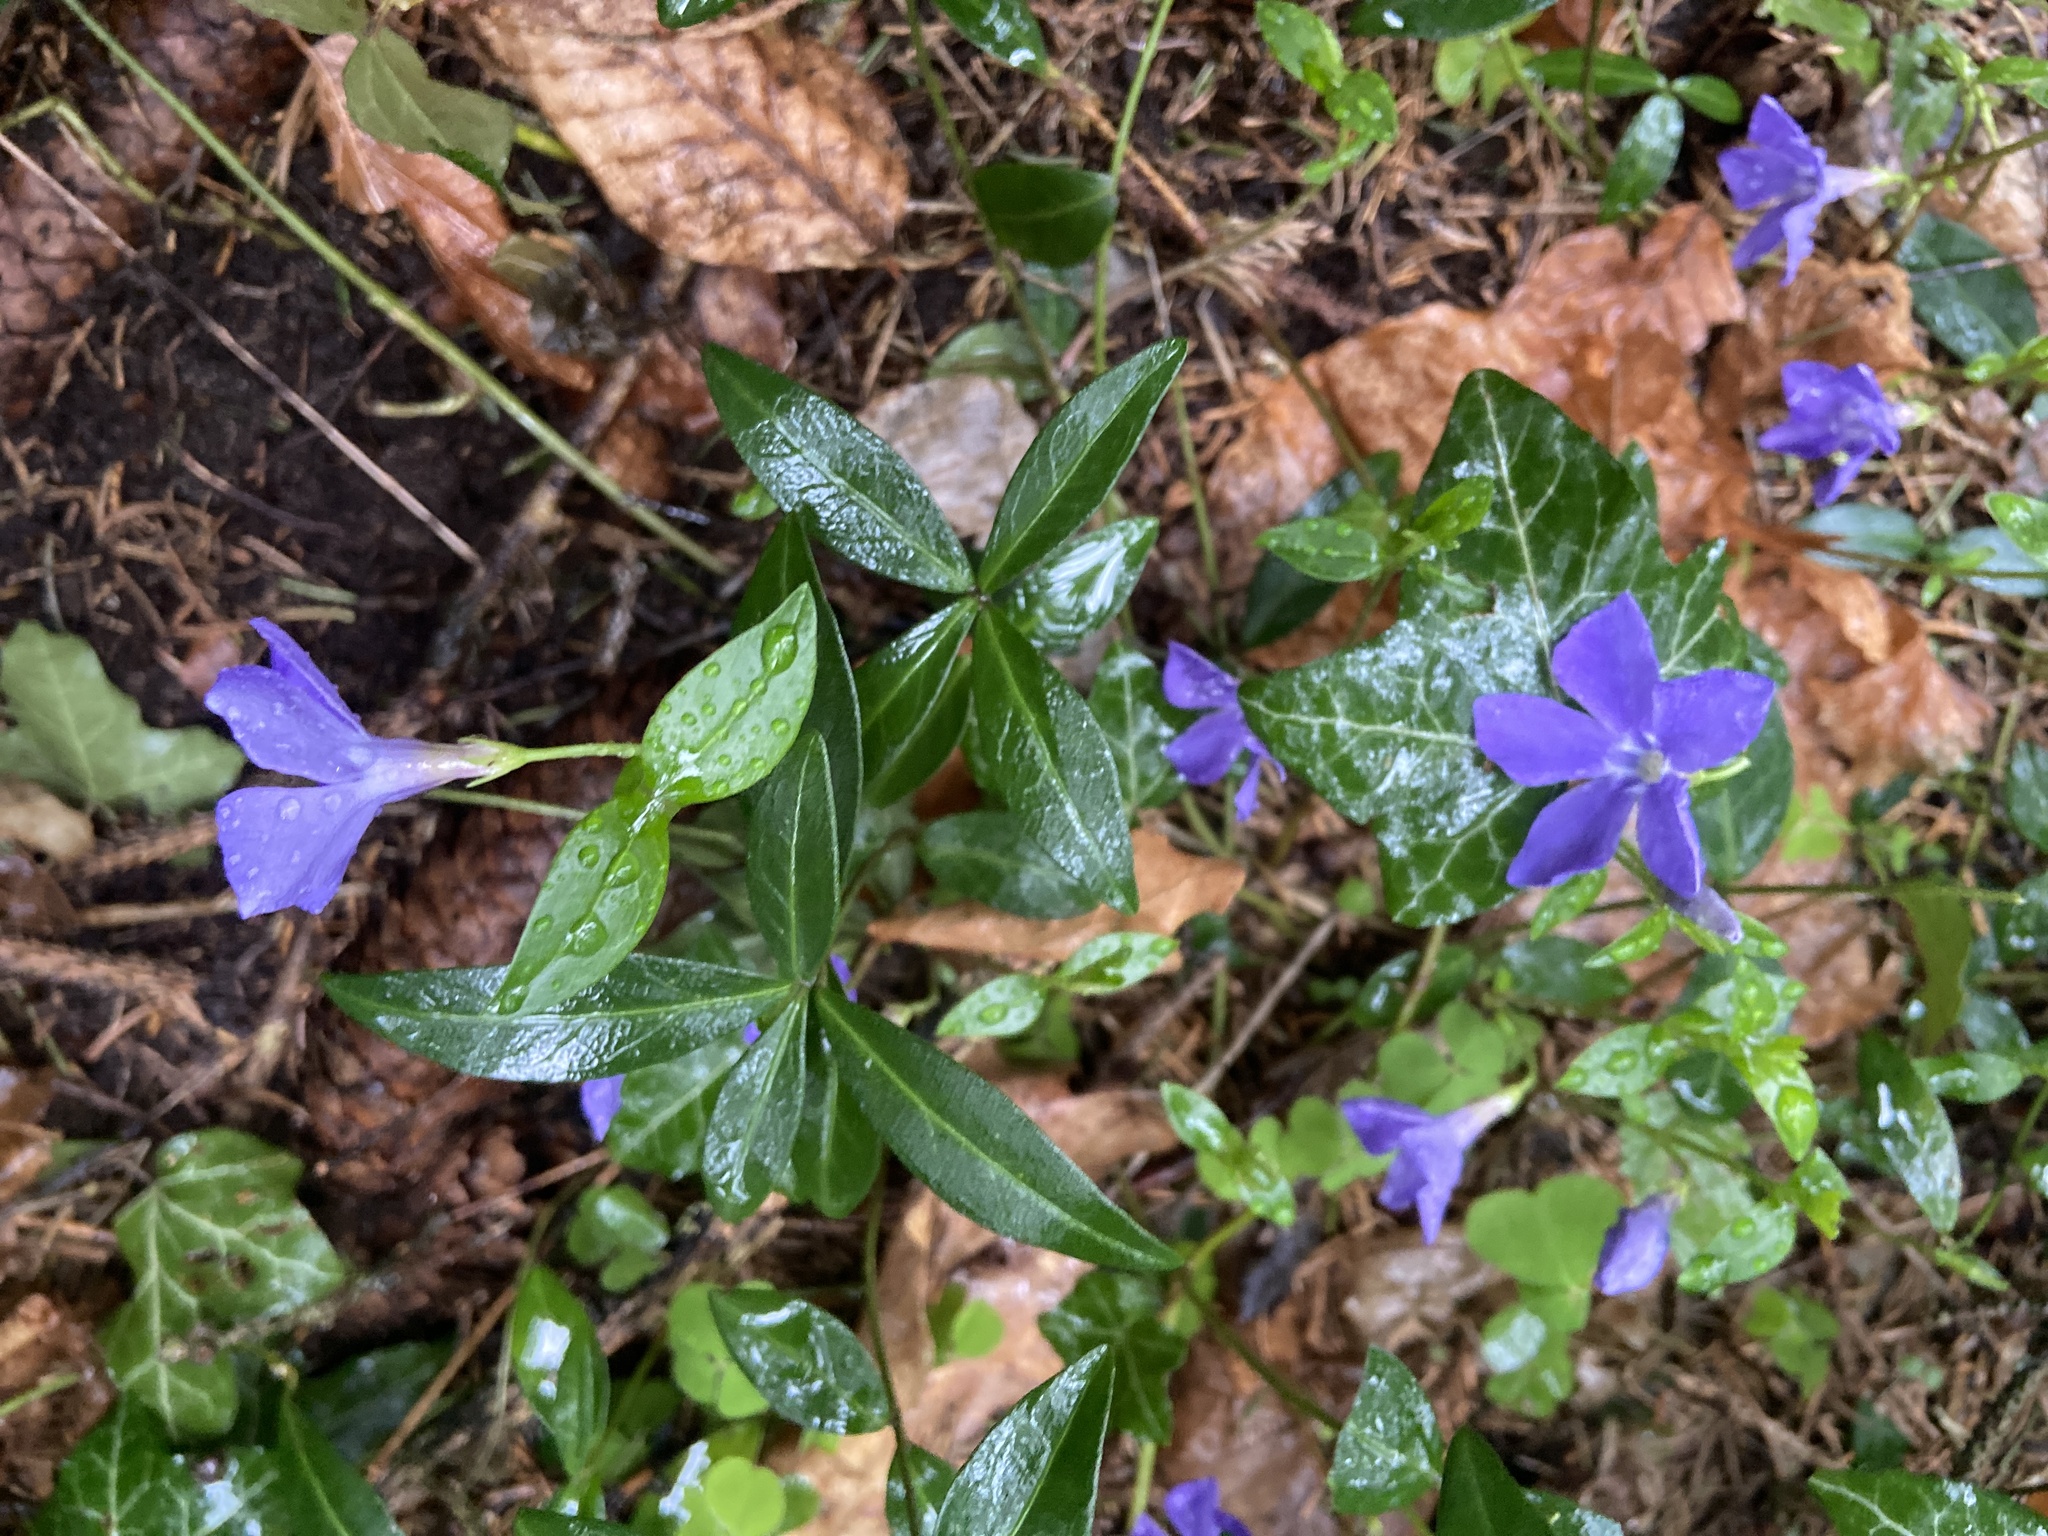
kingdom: Plantae
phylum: Tracheophyta
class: Magnoliopsida
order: Gentianales
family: Apocynaceae
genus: Vinca
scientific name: Vinca minor
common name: Lesser periwinkle
